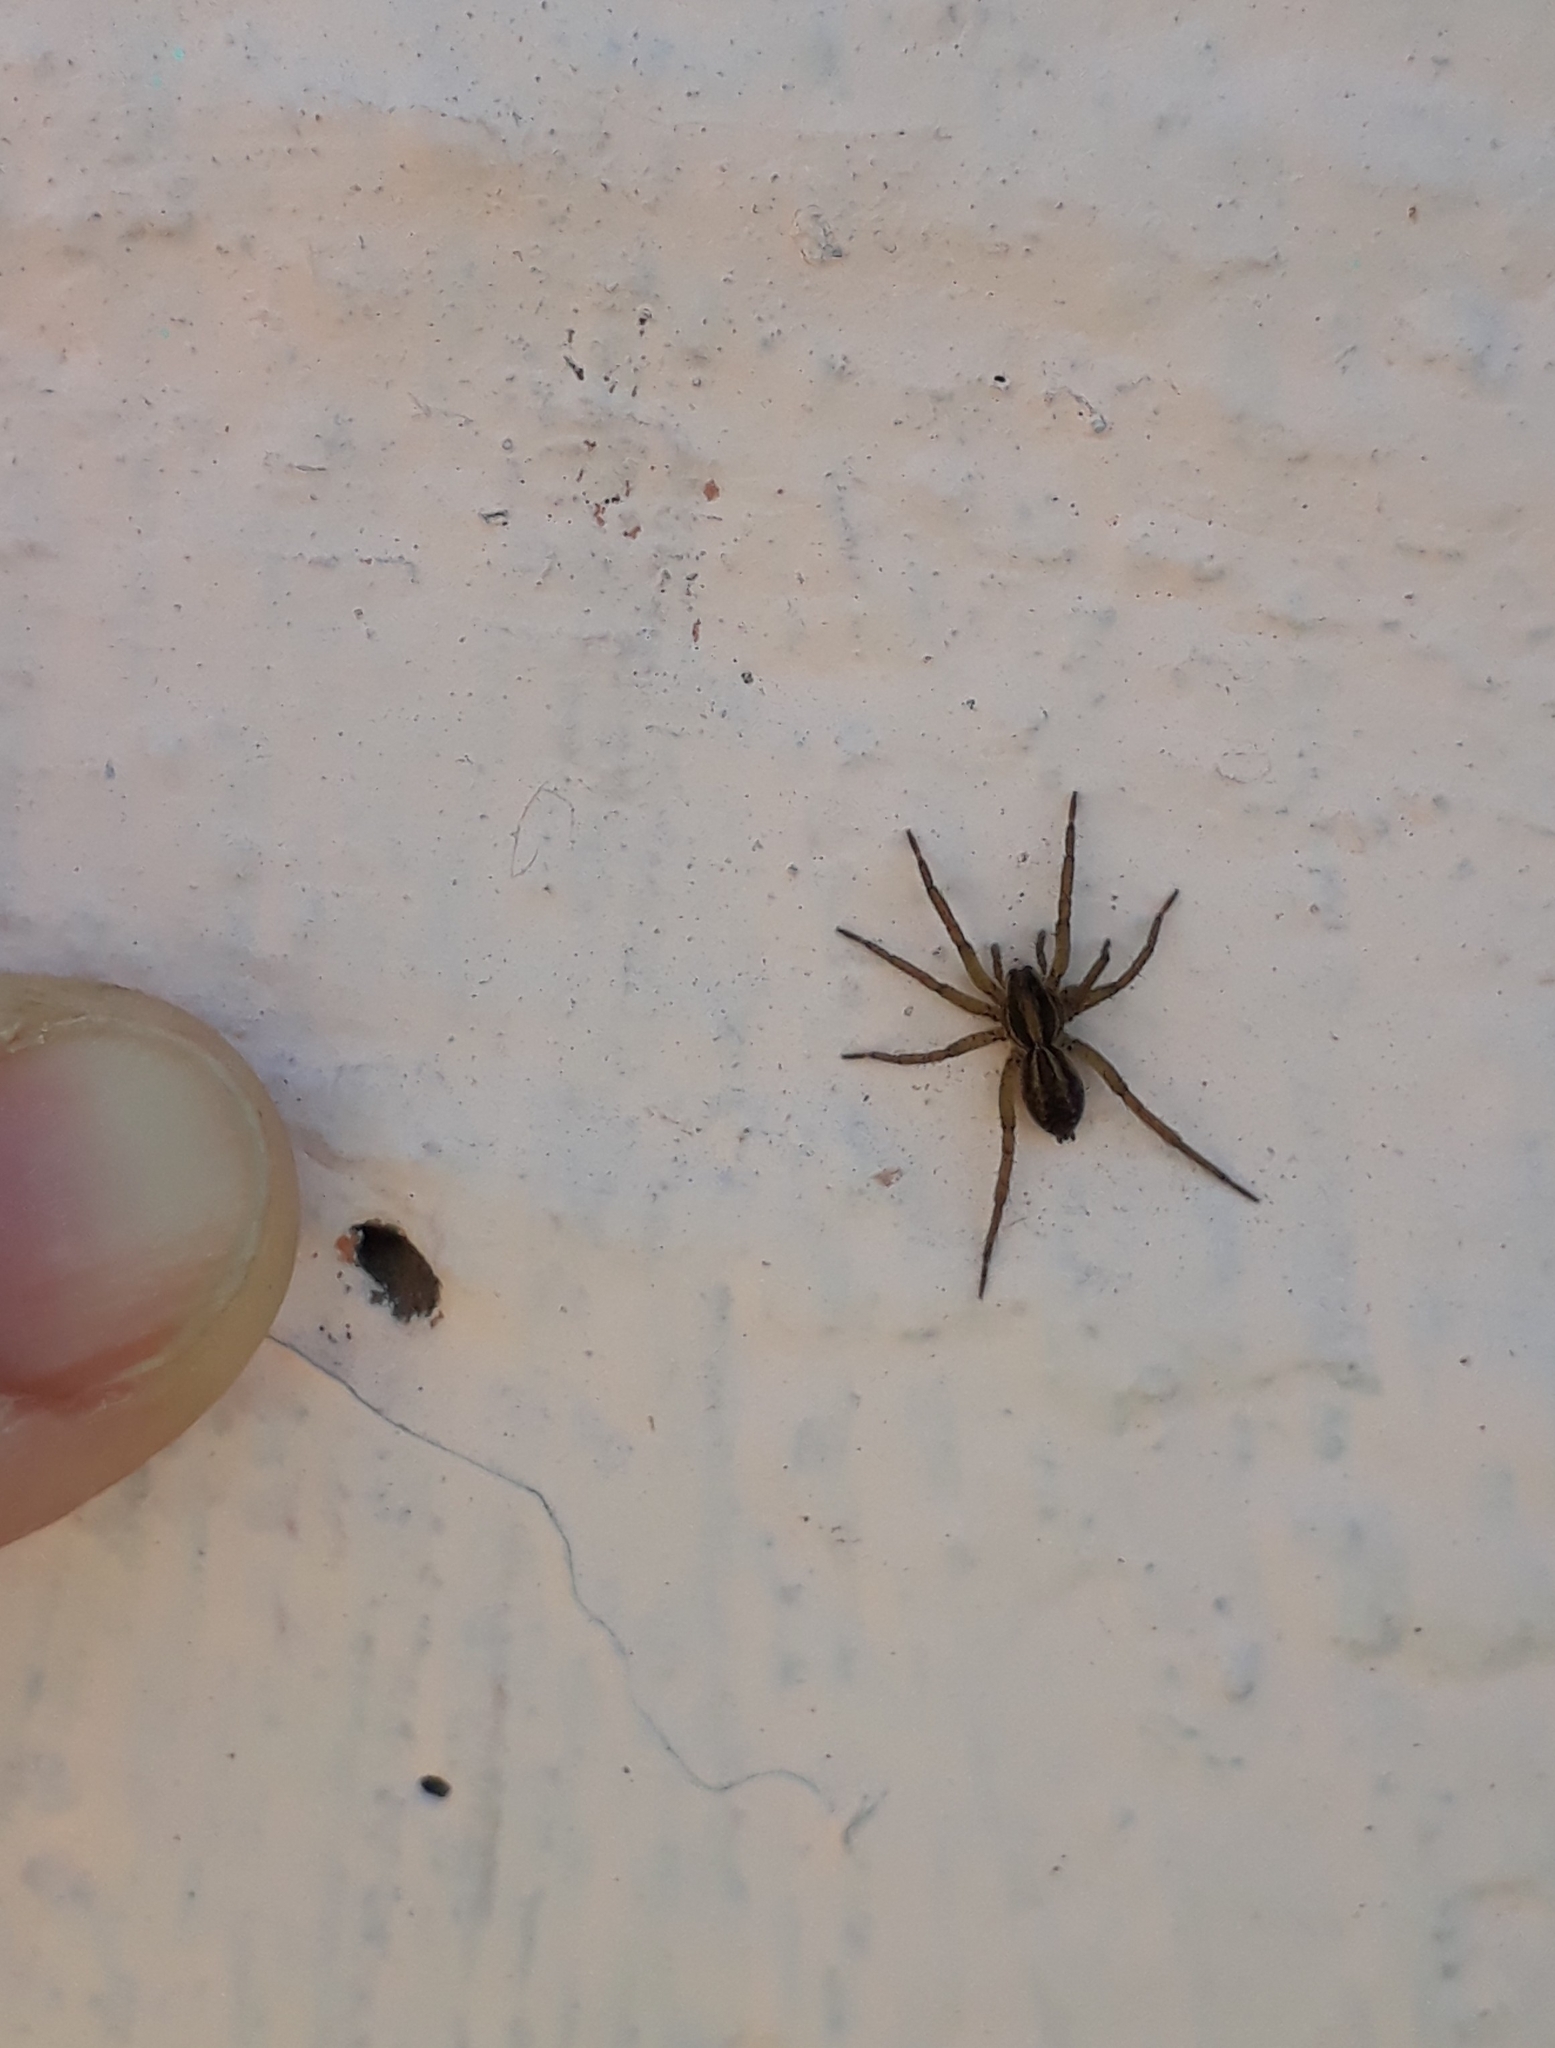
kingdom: Animalia
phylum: Arthropoda
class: Arachnida
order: Araneae
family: Lycosidae
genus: Alopecosa
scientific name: Alopecosa moesta
